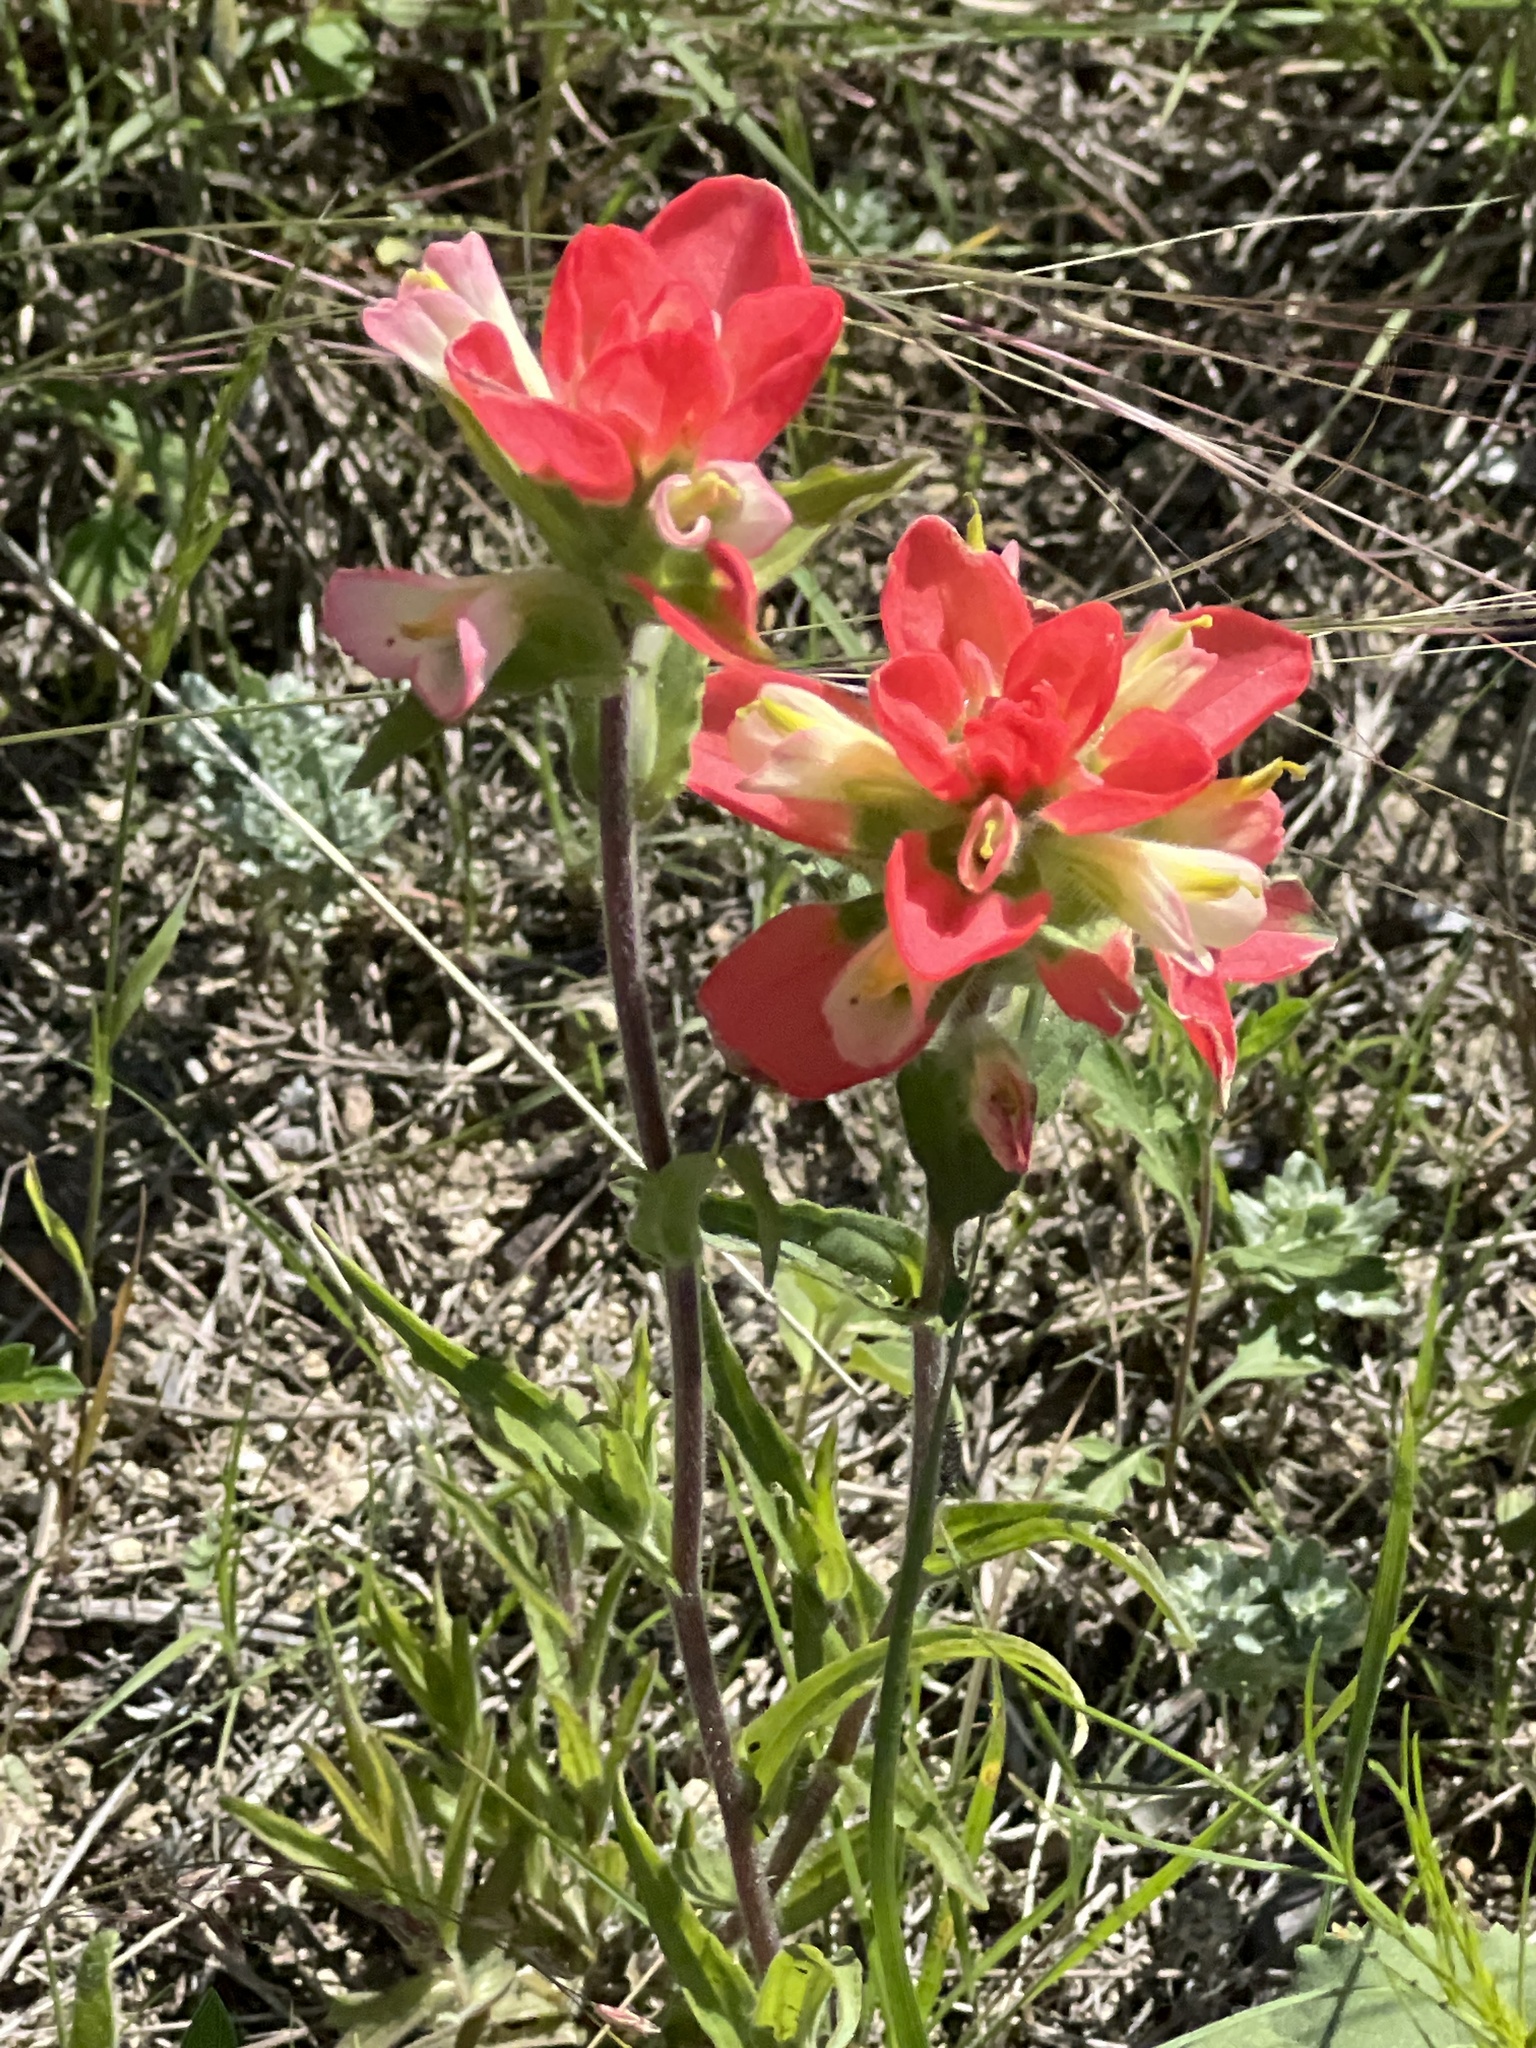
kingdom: Plantae
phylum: Tracheophyta
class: Magnoliopsida
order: Lamiales
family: Orobanchaceae
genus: Castilleja
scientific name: Castilleja indivisa
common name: Texas paintbrush
